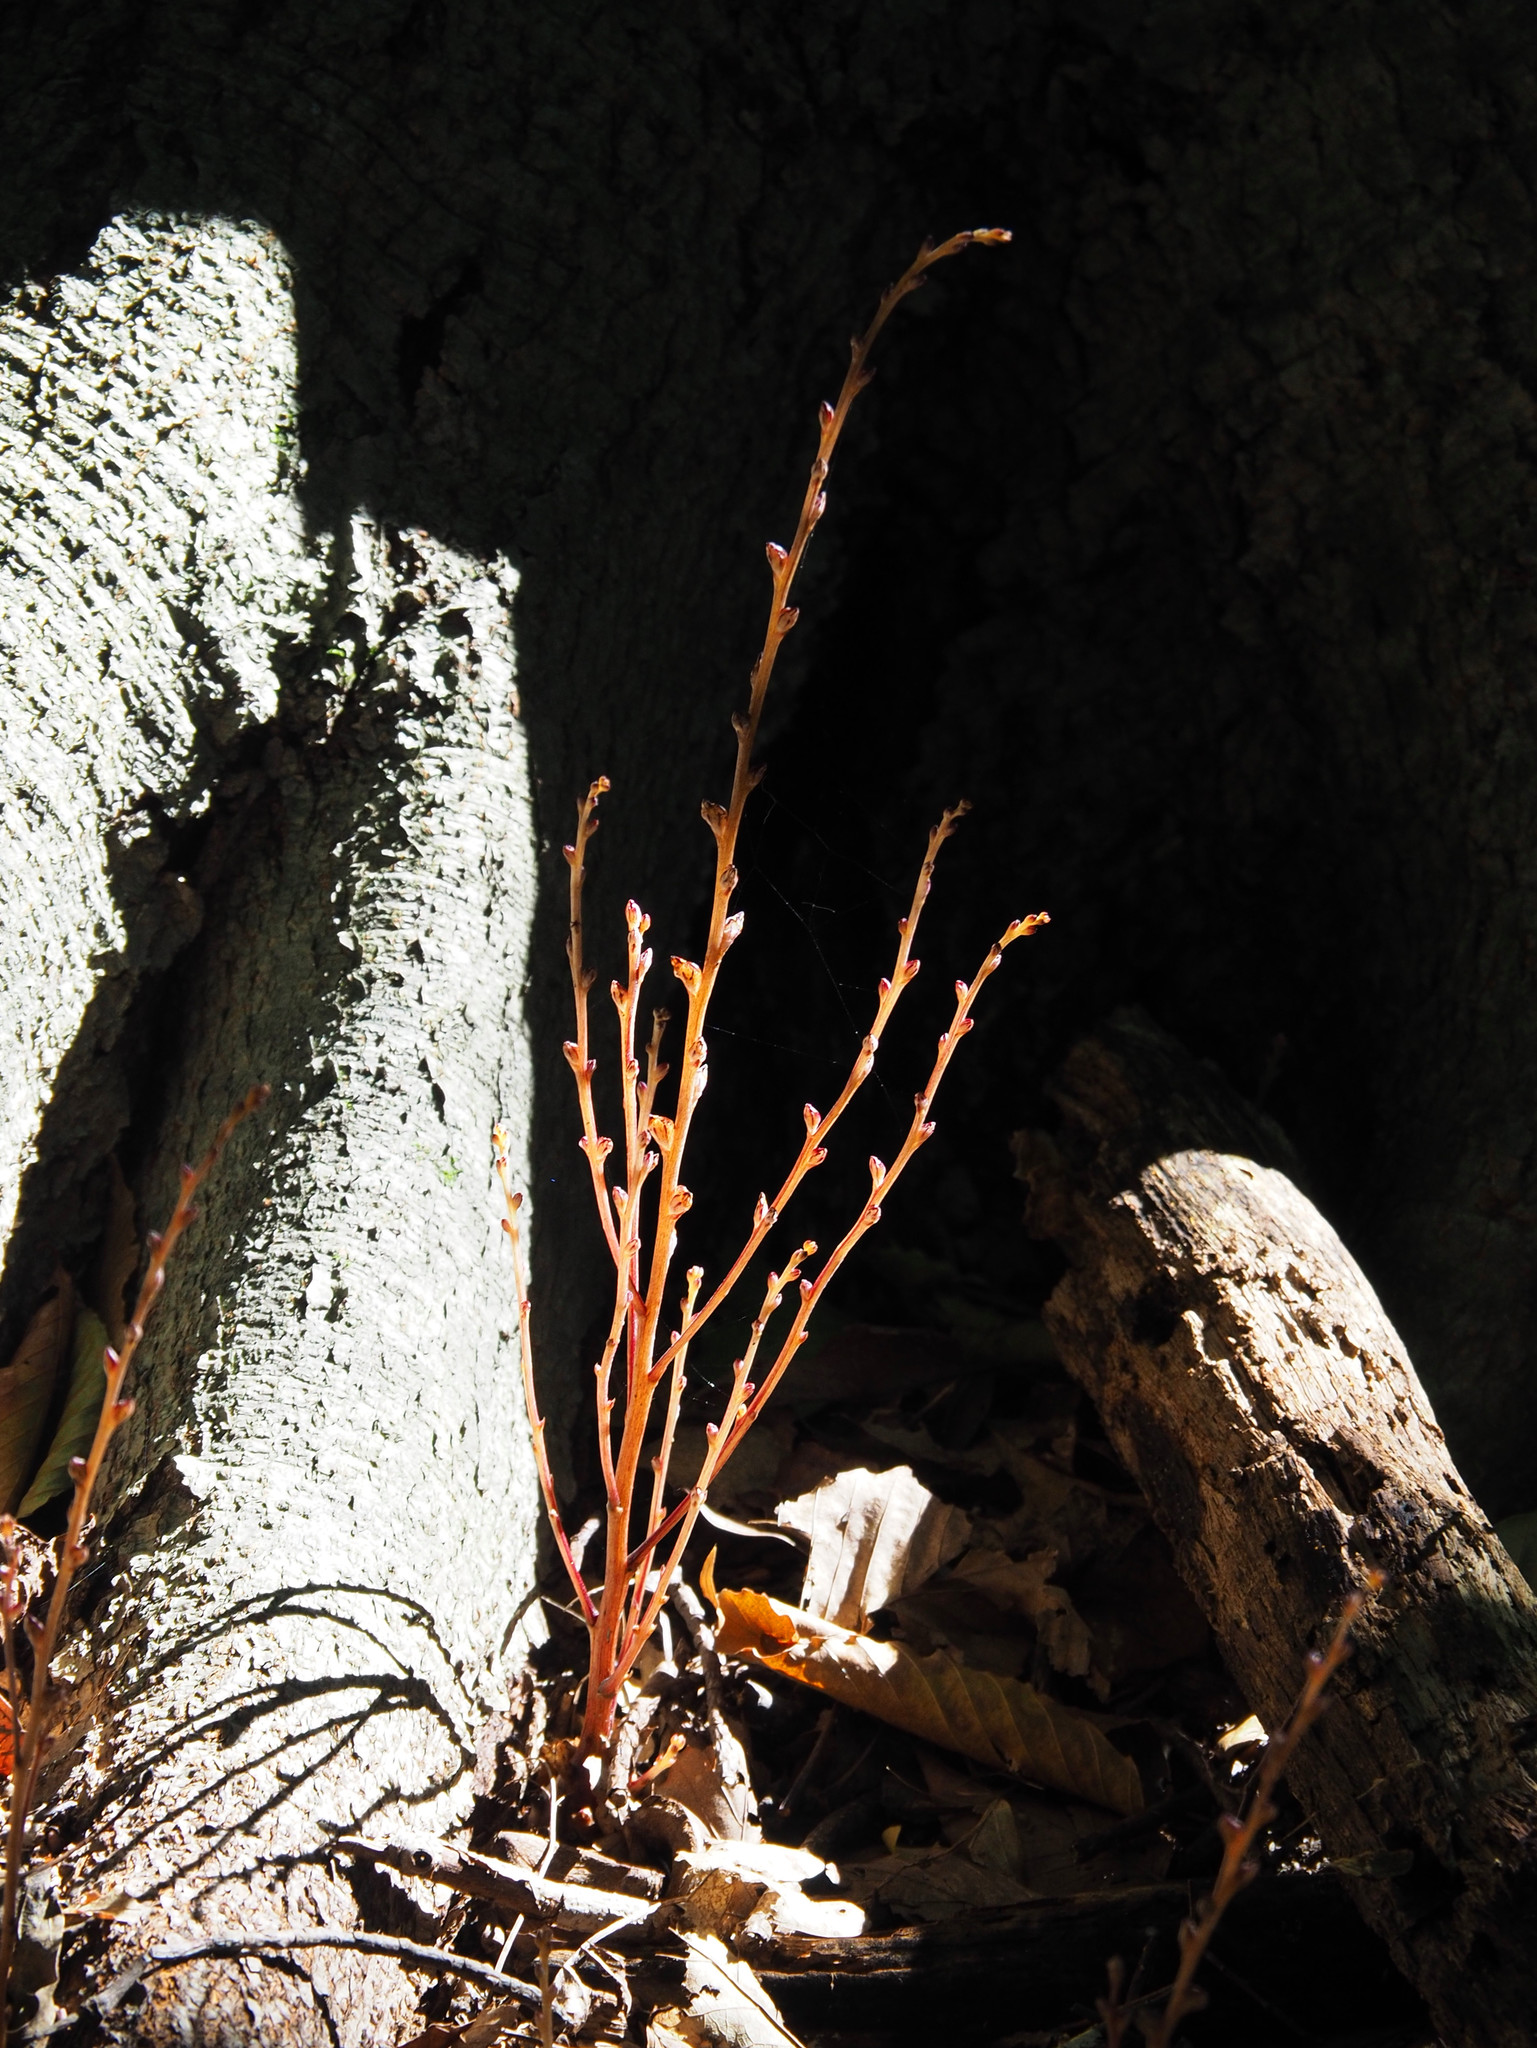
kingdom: Plantae
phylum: Tracheophyta
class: Magnoliopsida
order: Lamiales
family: Orobanchaceae
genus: Epifagus
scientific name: Epifagus virginiana
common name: Beechdrops
